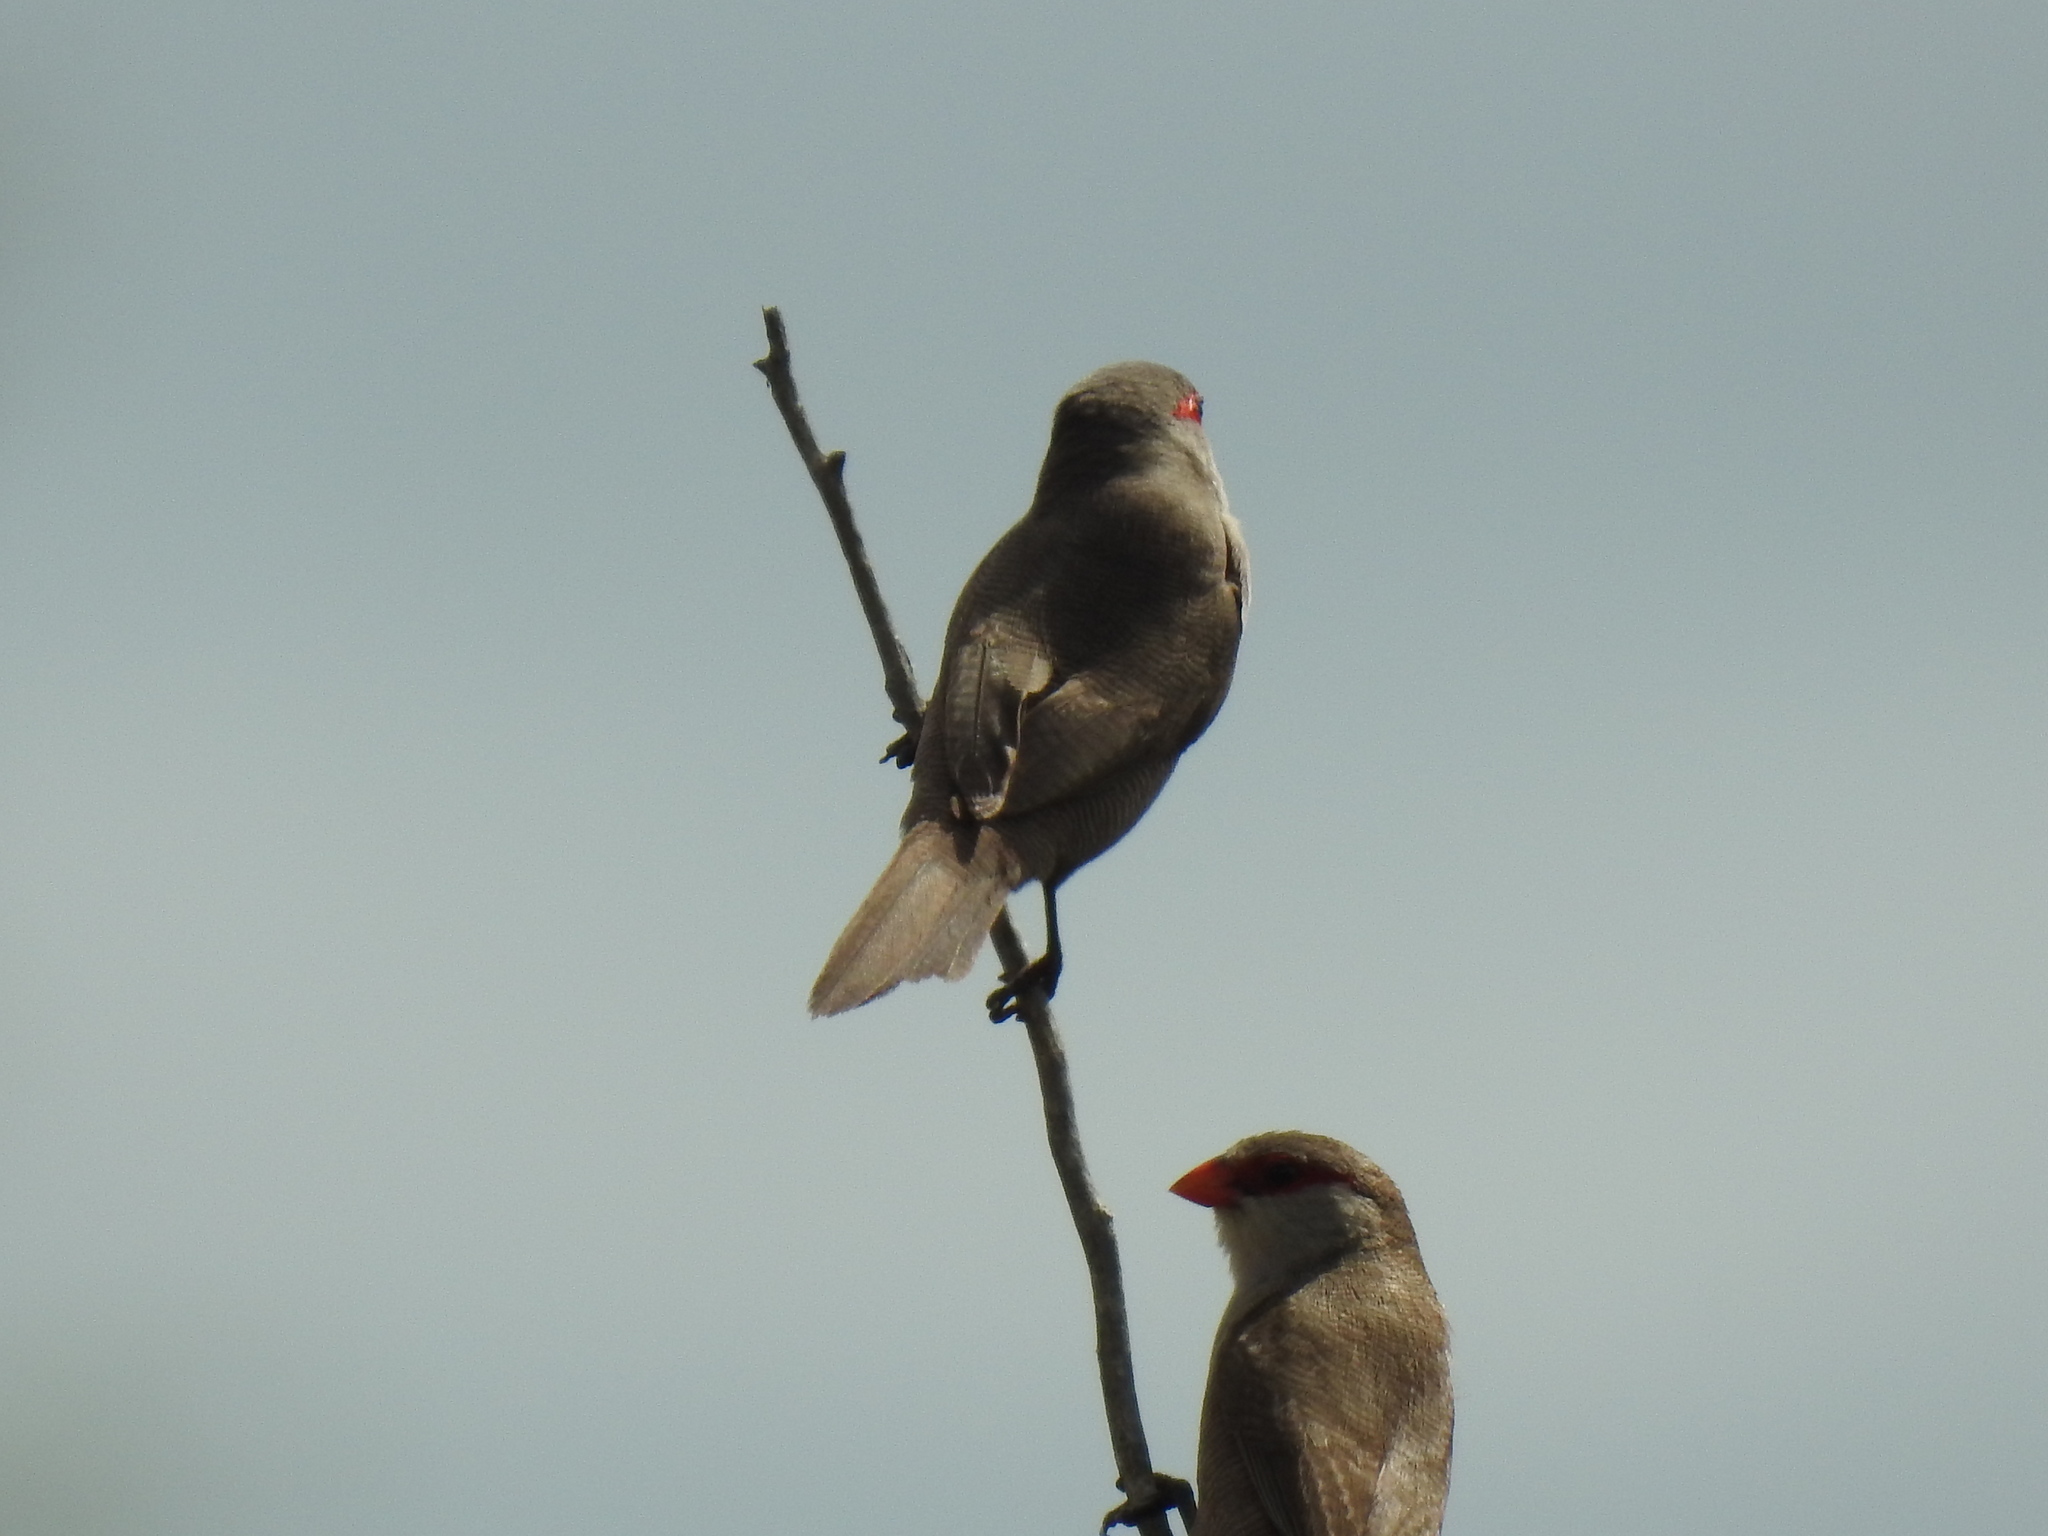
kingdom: Animalia
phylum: Chordata
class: Aves
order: Passeriformes
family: Estrildidae
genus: Estrilda
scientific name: Estrilda astrild
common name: Common waxbill
